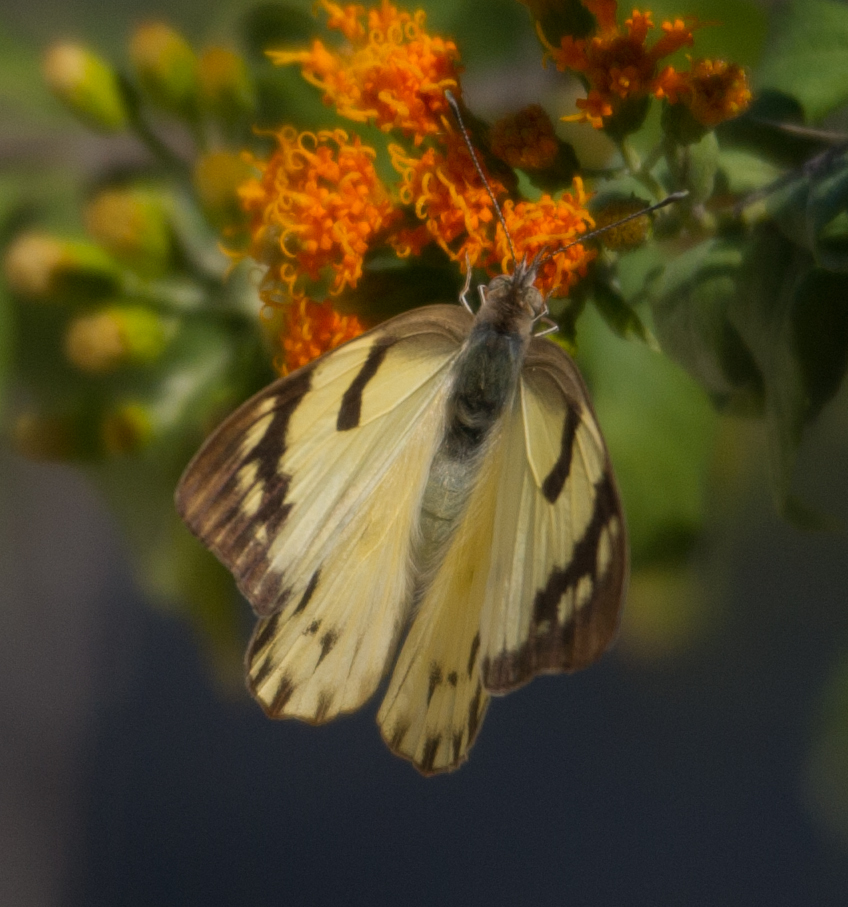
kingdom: Animalia
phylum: Arthropoda
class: Insecta
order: Lepidoptera
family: Pieridae
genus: Belenois
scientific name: Belenois gidica
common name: Pointed caper white
